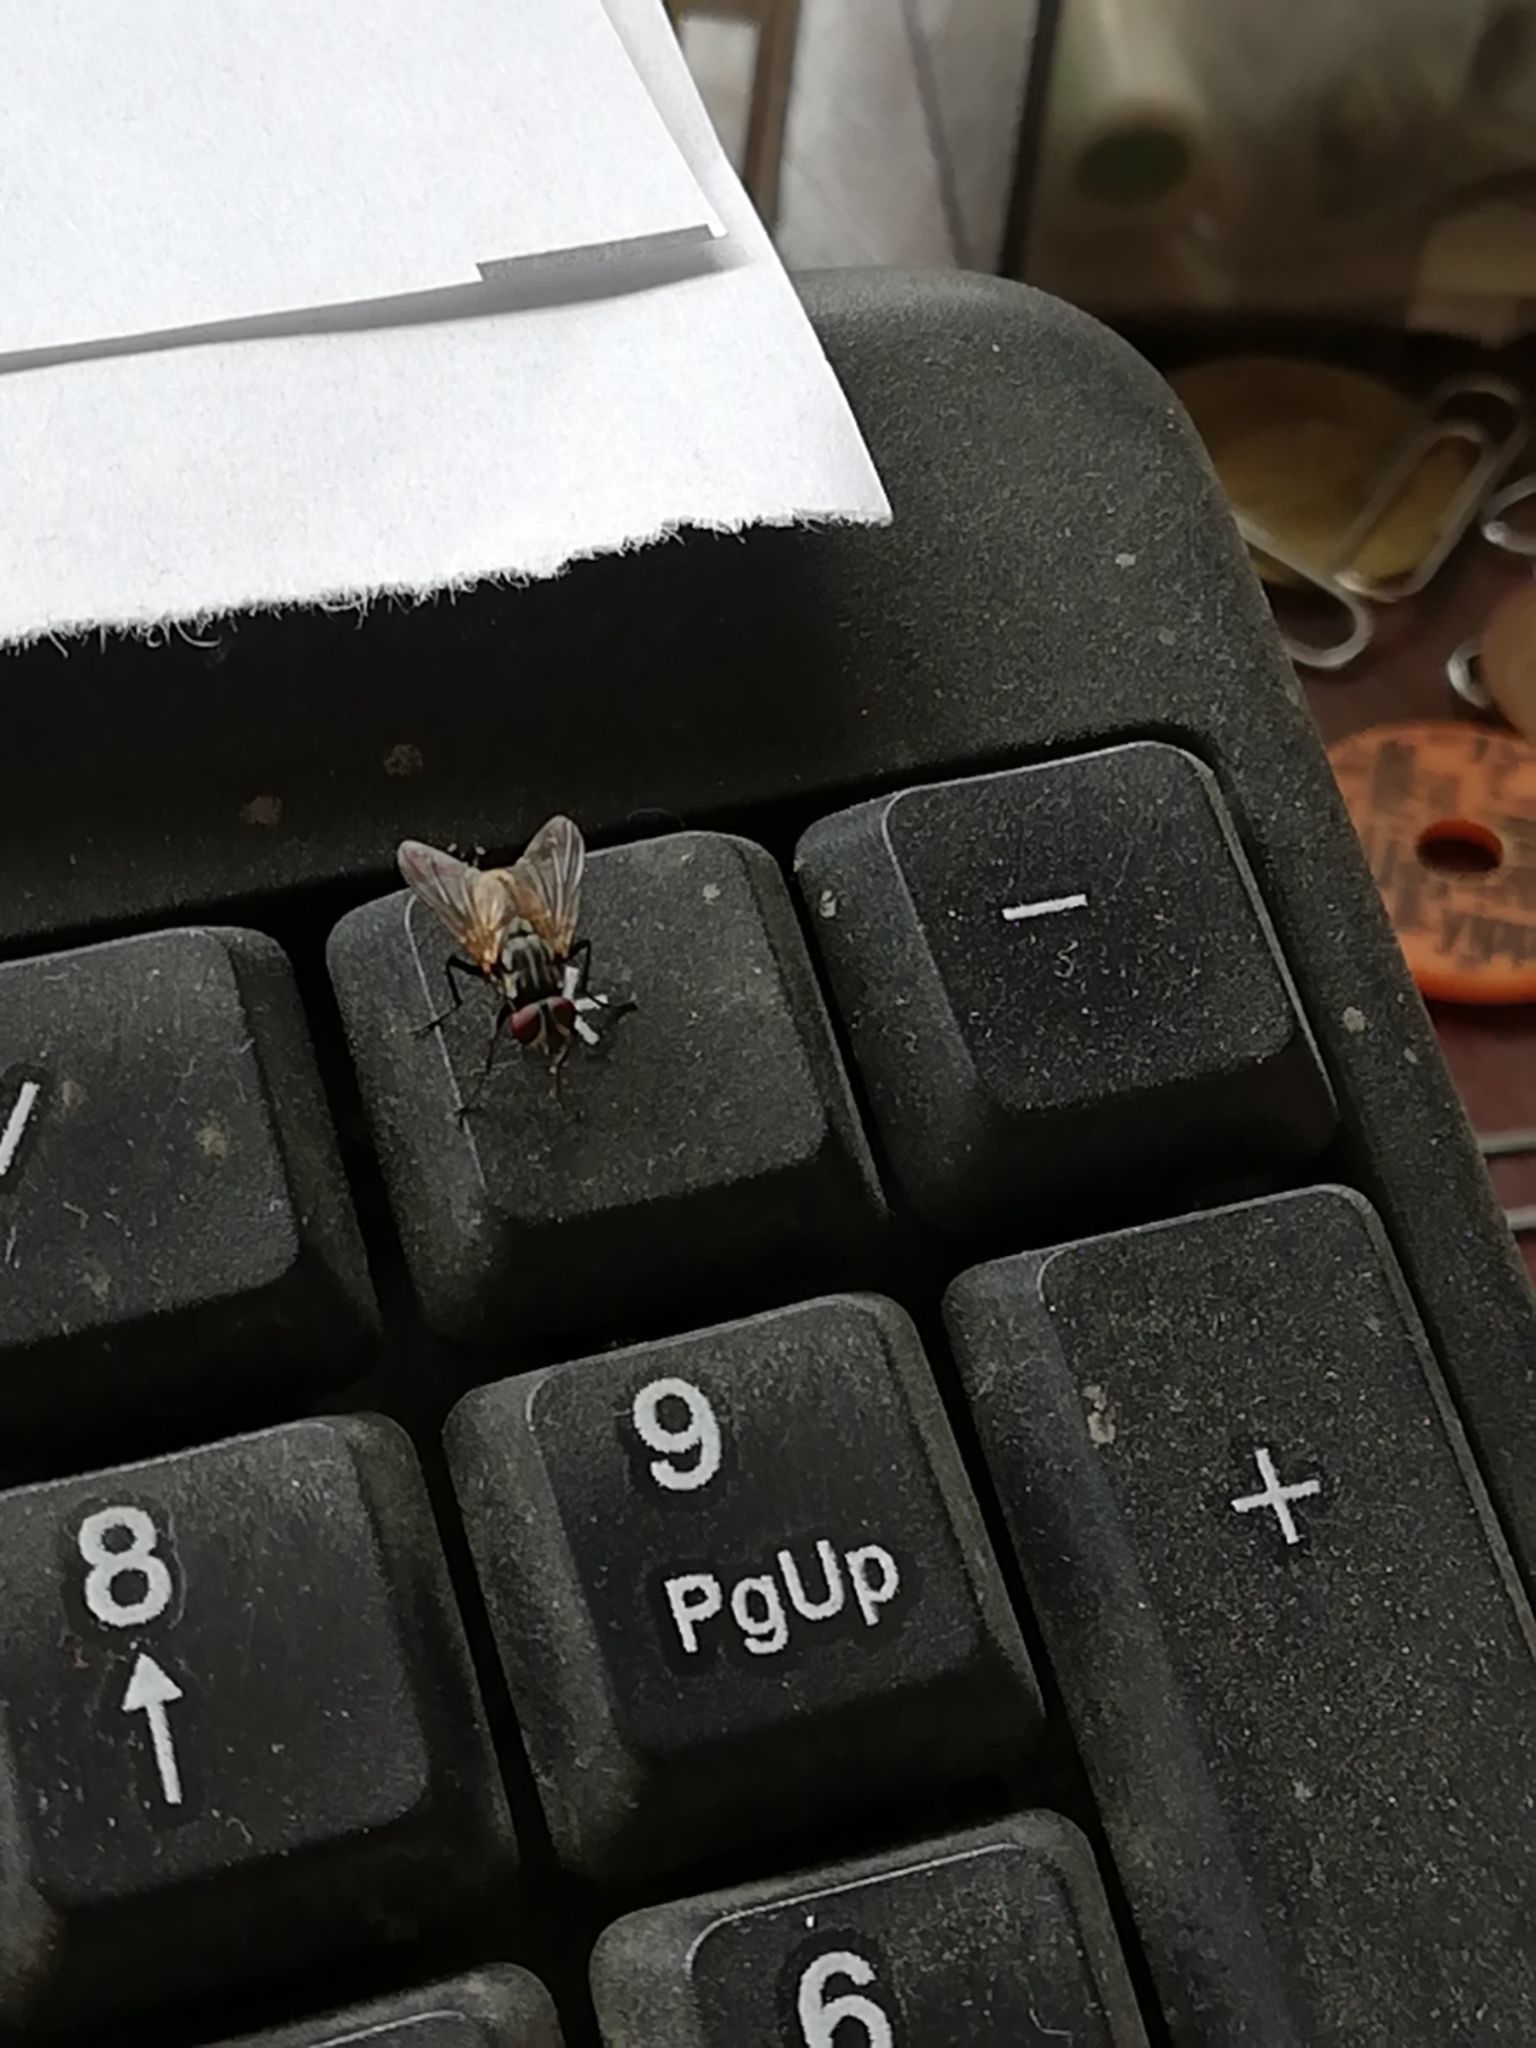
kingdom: Animalia
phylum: Arthropoda
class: Insecta
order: Diptera
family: Muscidae
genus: Musca
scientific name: Musca domestica
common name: House fly
